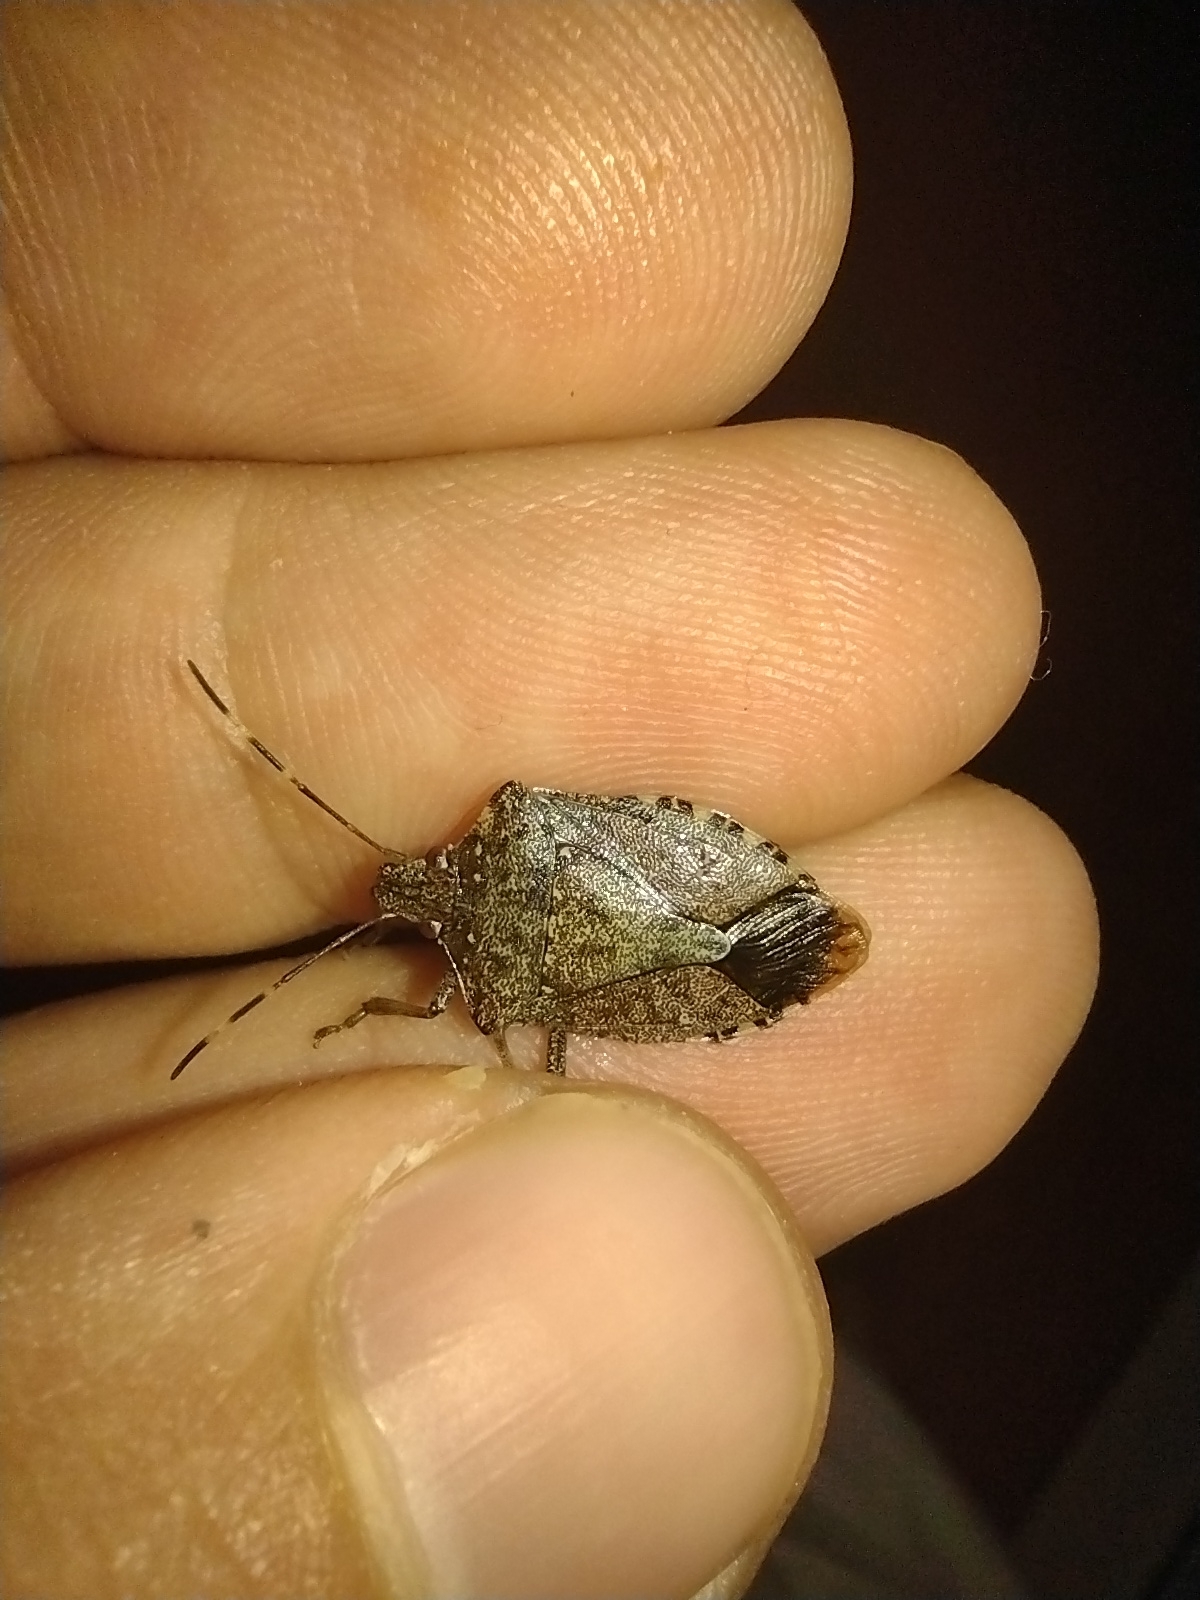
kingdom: Animalia
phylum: Arthropoda
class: Insecta
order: Hemiptera
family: Pentatomidae
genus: Halyomorpha
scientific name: Halyomorpha halys
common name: Brown marmorated stink bug
